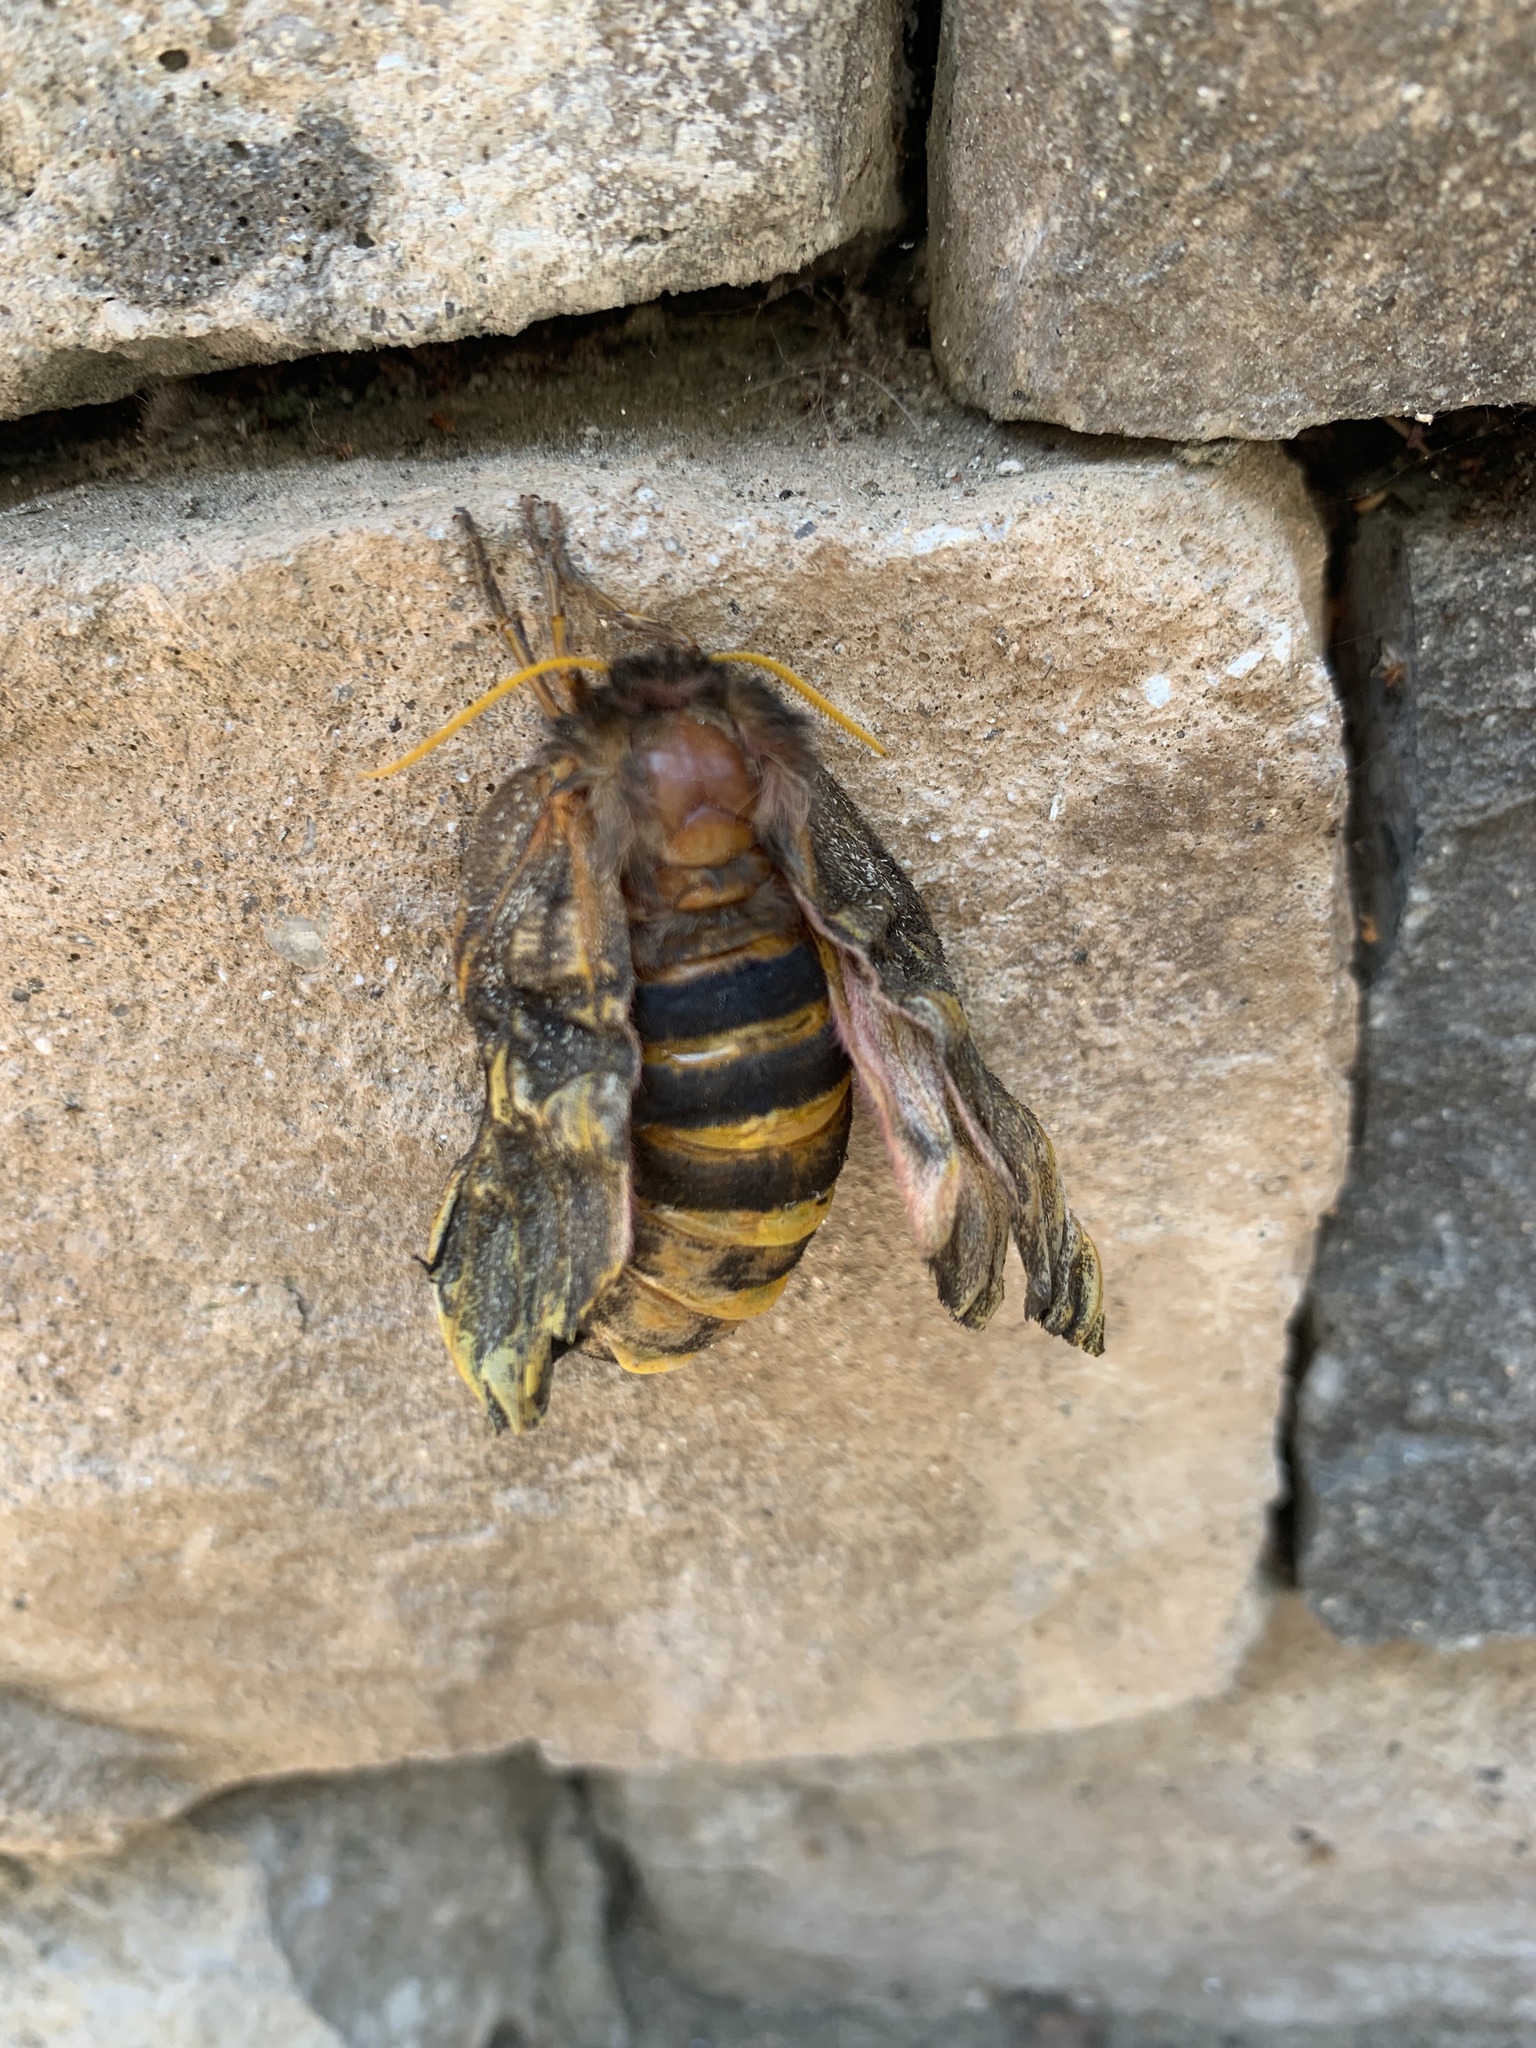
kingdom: Animalia
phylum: Arthropoda
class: Insecta
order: Lepidoptera
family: Saturniidae
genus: Coloradia
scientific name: Coloradia pandora
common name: Pandora pinemoth
